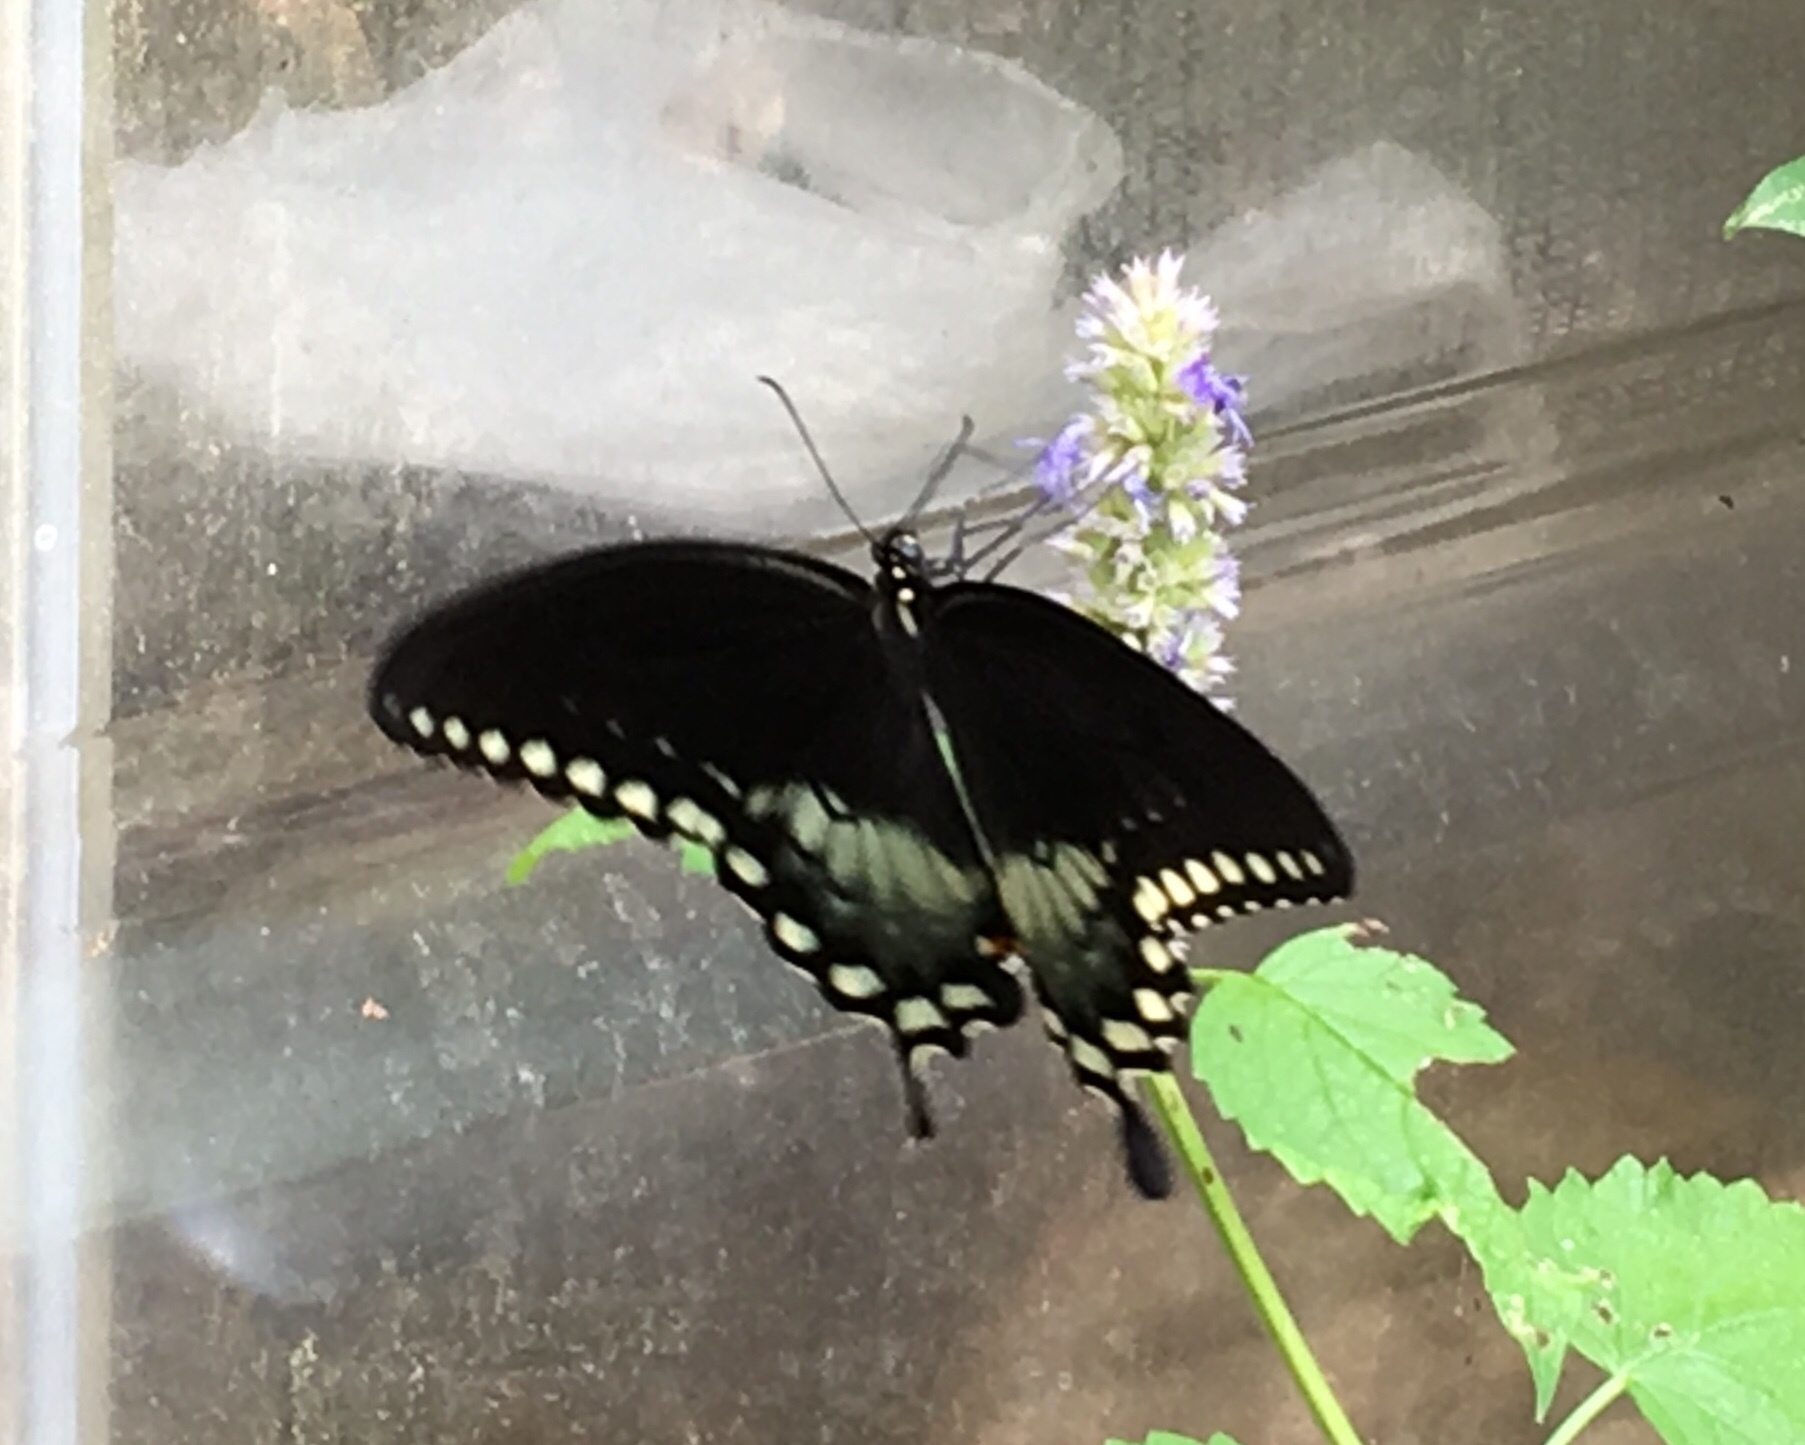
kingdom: Animalia
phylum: Arthropoda
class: Insecta
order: Lepidoptera
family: Papilionidae
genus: Papilio
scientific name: Papilio troilus
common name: Spicebush swallowtail
